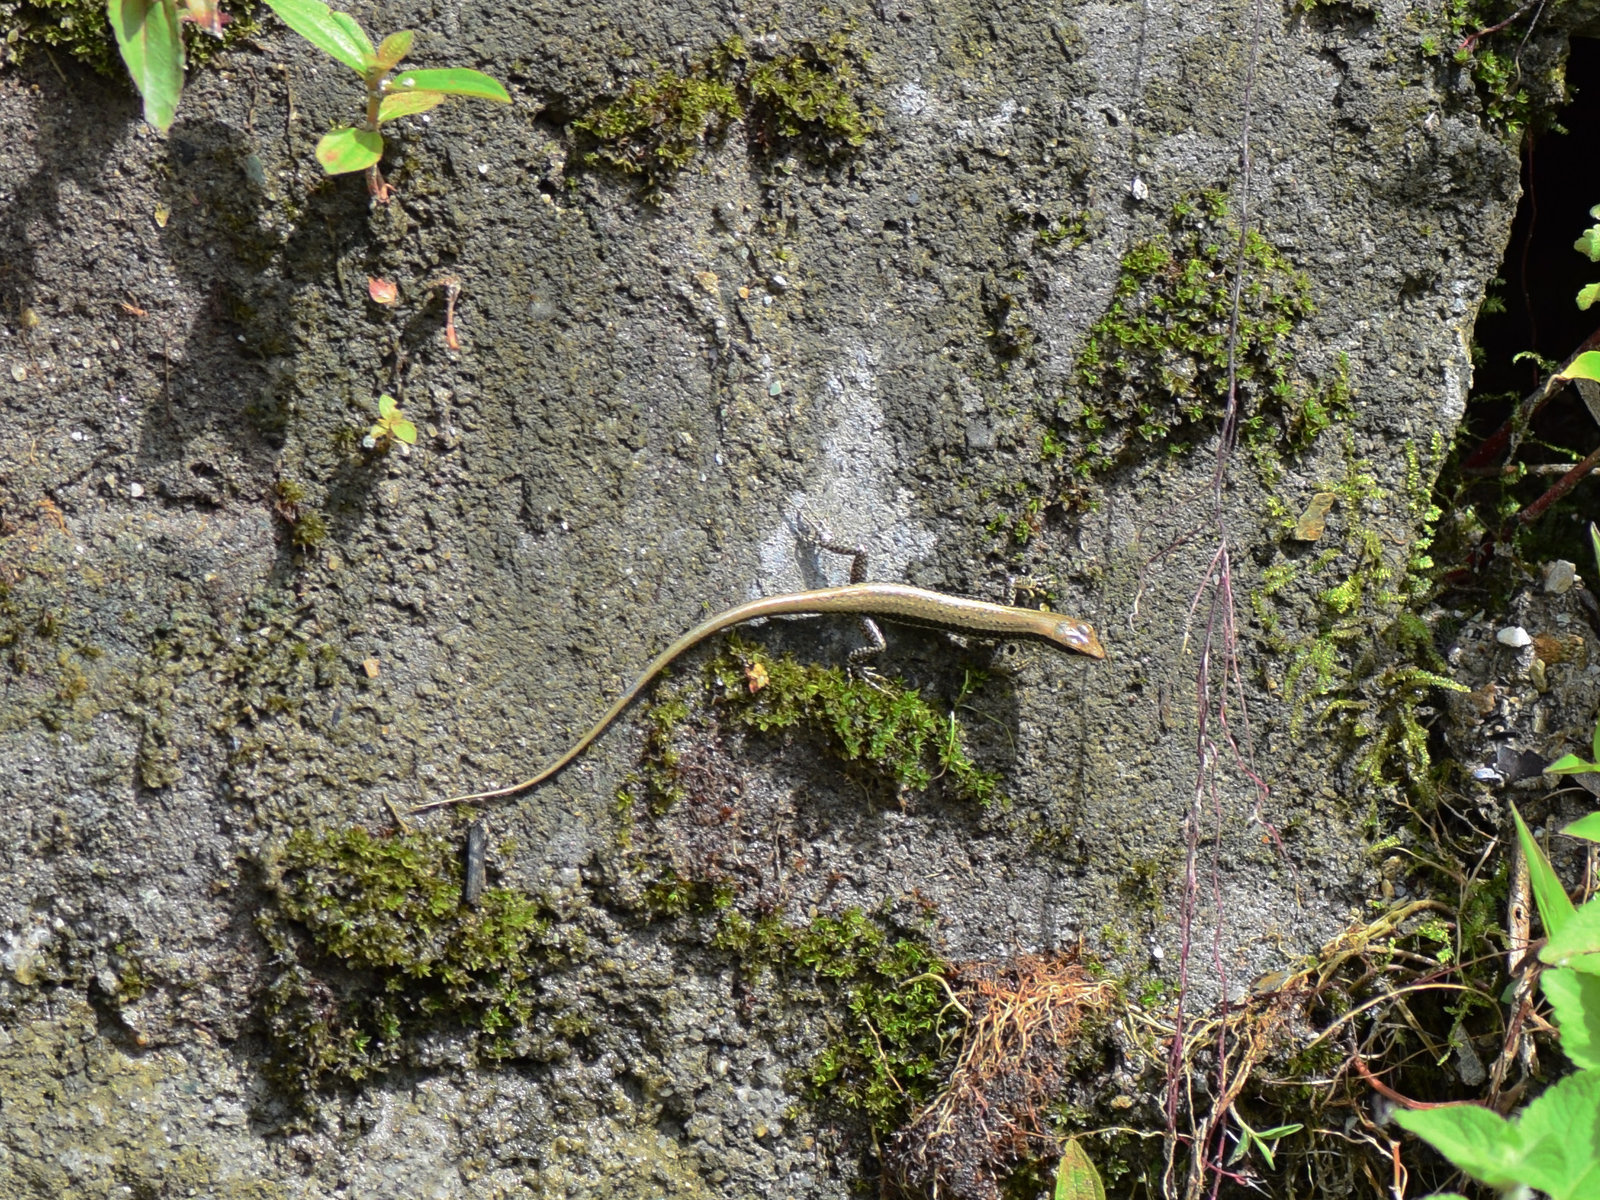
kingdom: Animalia
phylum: Chordata
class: Squamata
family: Scincidae
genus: Sphenomorphus
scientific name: Sphenomorphus indicus
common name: Himalayan forest skink
